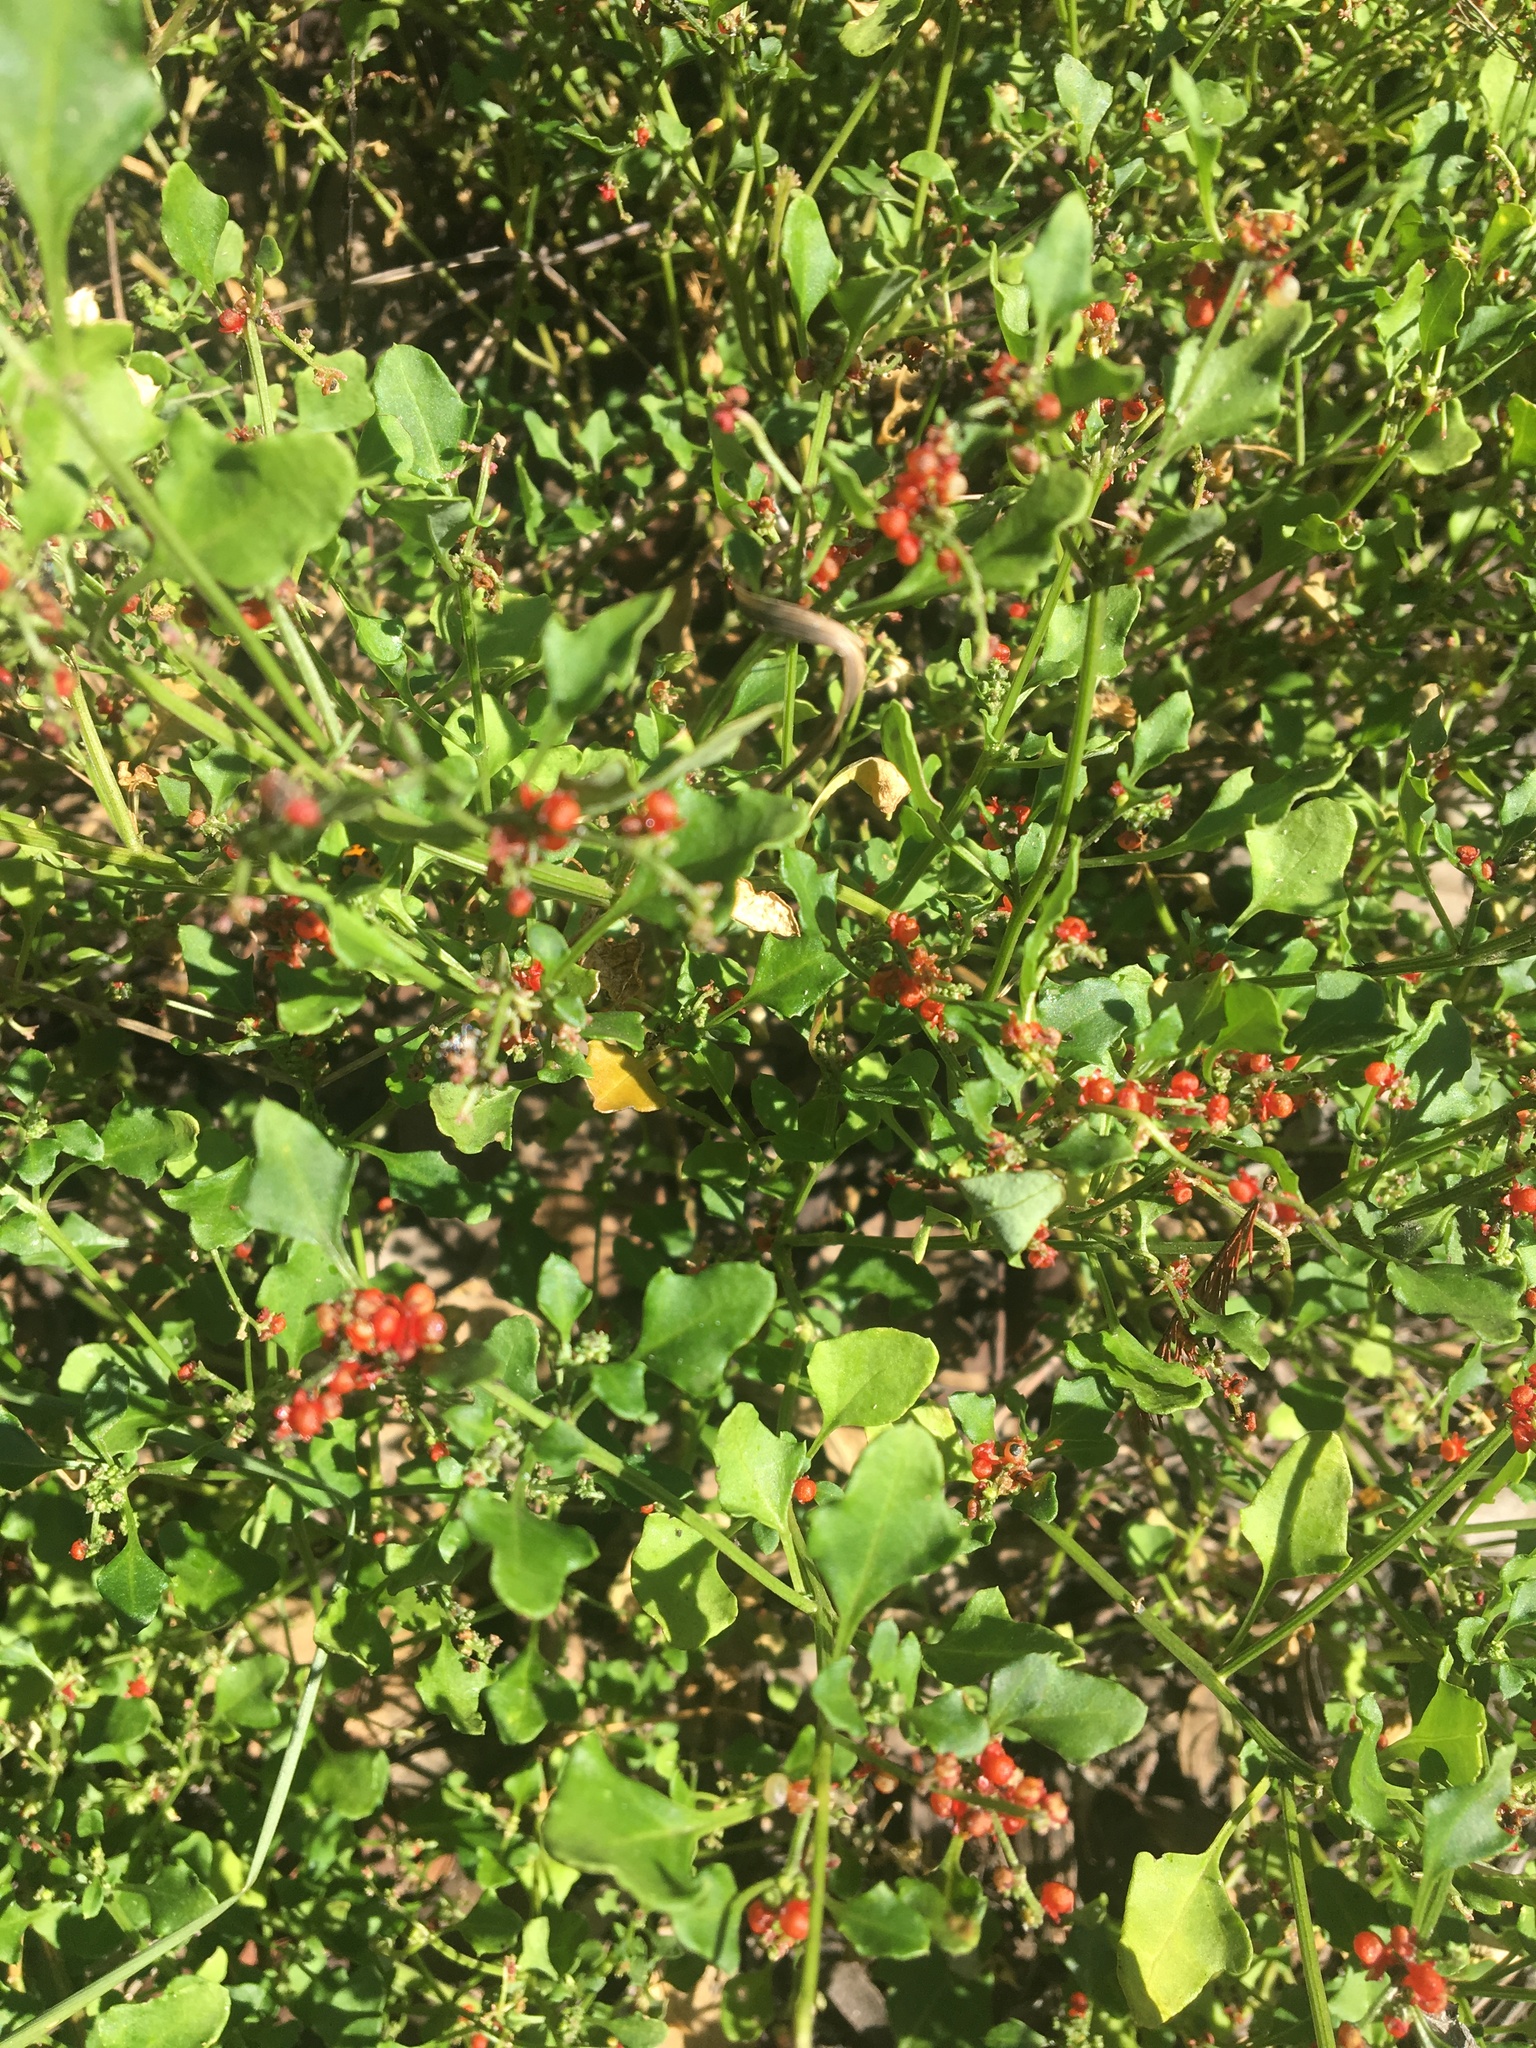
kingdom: Plantae
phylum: Tracheophyta
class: Magnoliopsida
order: Caryophyllales
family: Amaranthaceae
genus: Chenopodium
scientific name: Chenopodium robertianum
